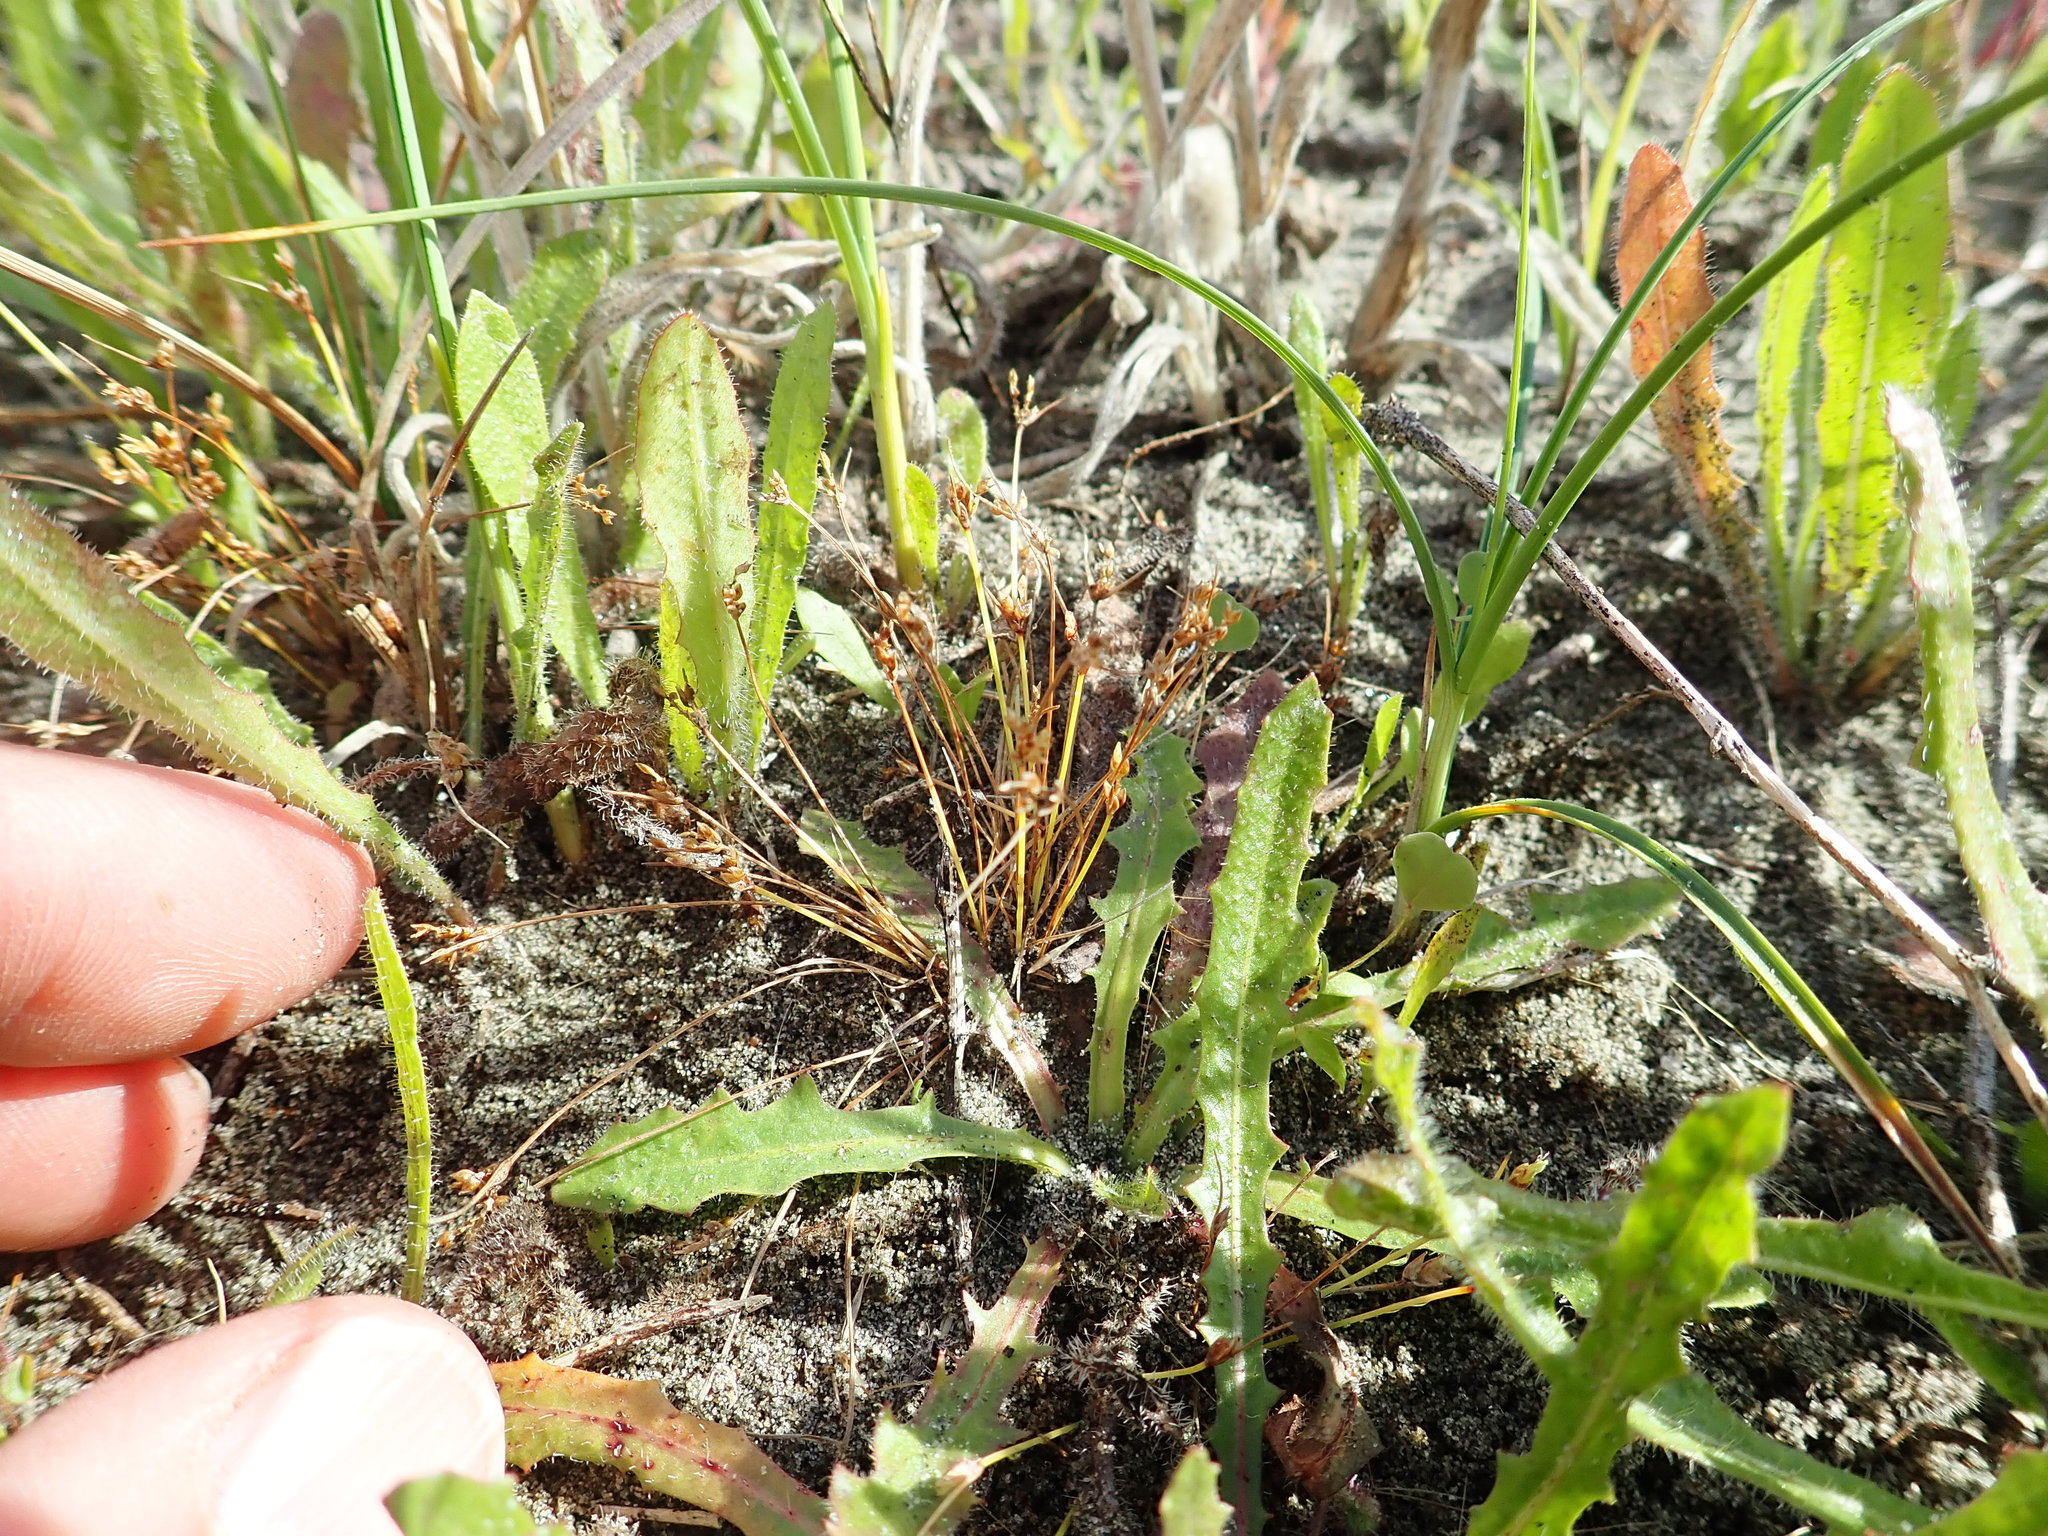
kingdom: Plantae
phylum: Tracheophyta
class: Liliopsida
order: Poales
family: Juncaceae
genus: Juncus
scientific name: Juncus bufonius
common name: Toad rush
